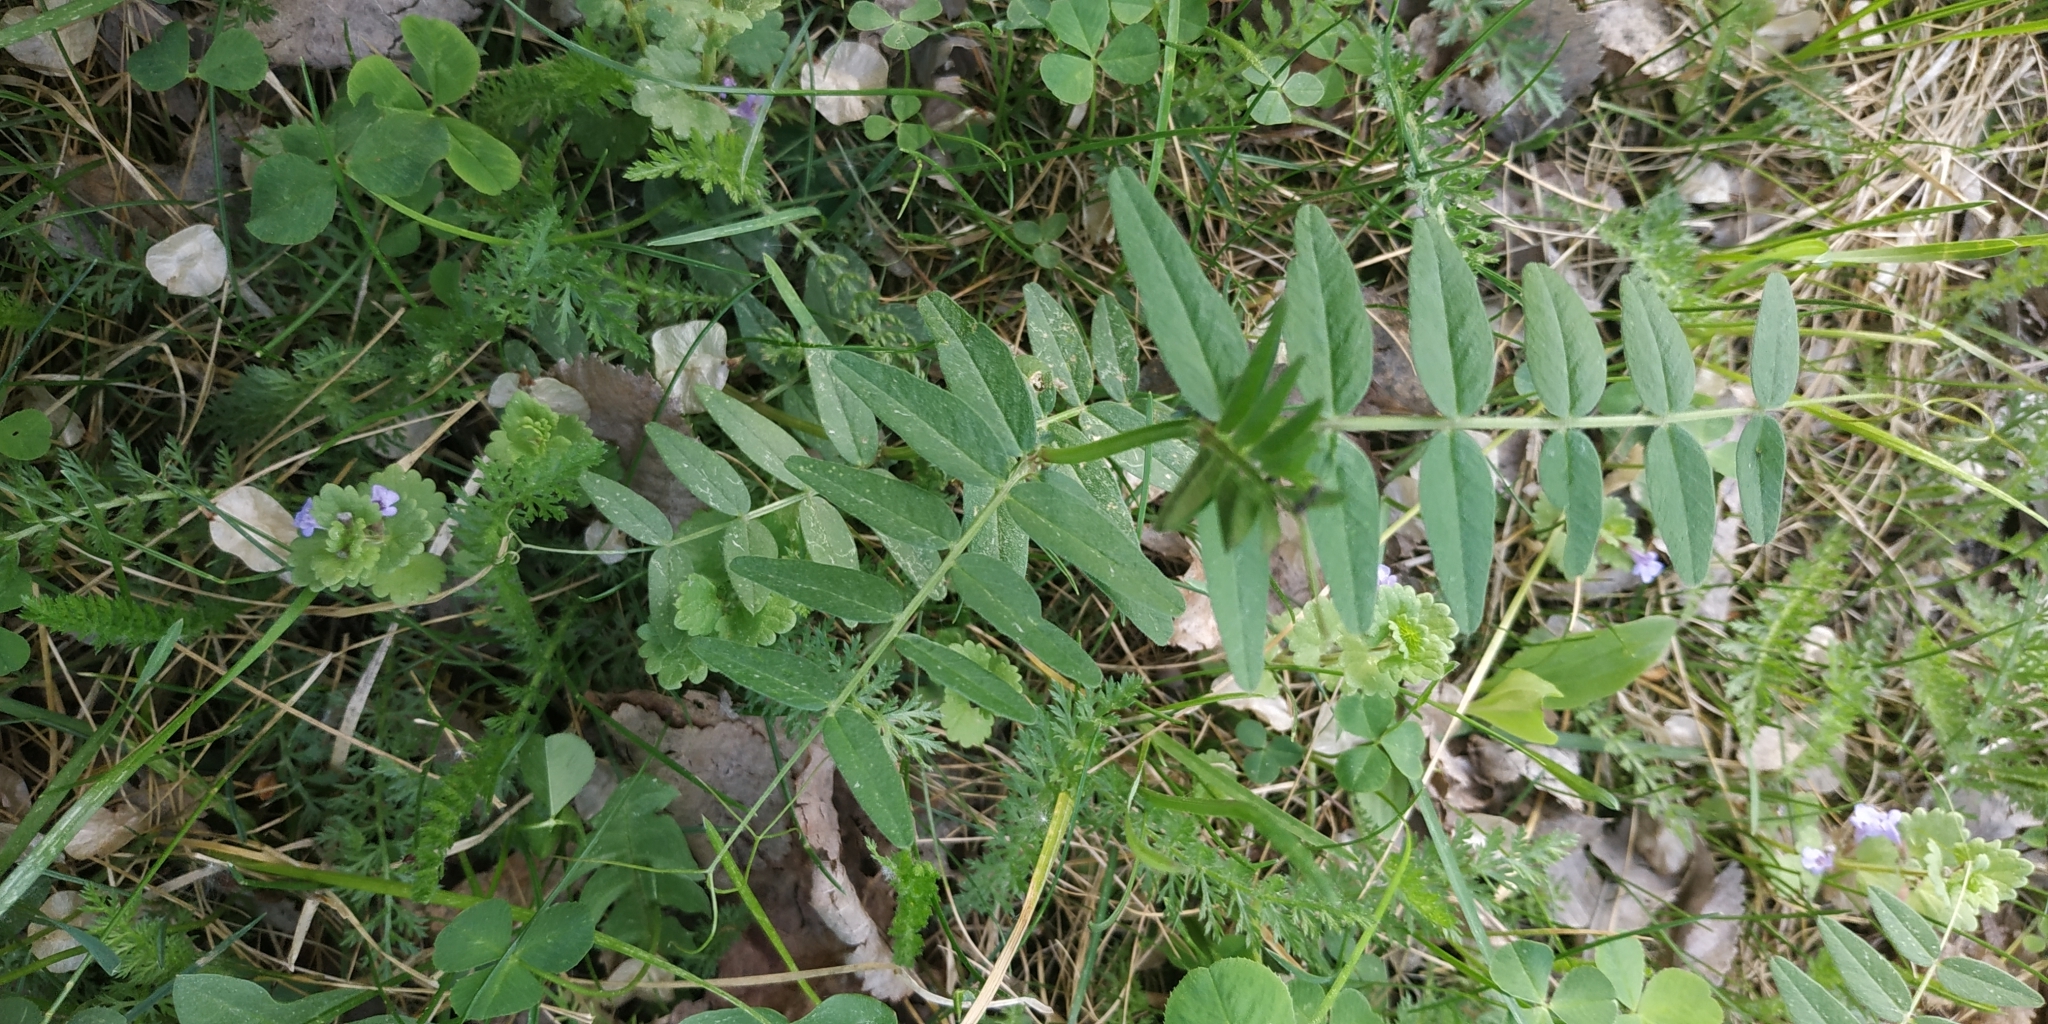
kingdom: Plantae
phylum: Tracheophyta
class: Magnoliopsida
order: Fabales
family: Fabaceae
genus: Vicia
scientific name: Vicia sepium
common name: Bush vetch
